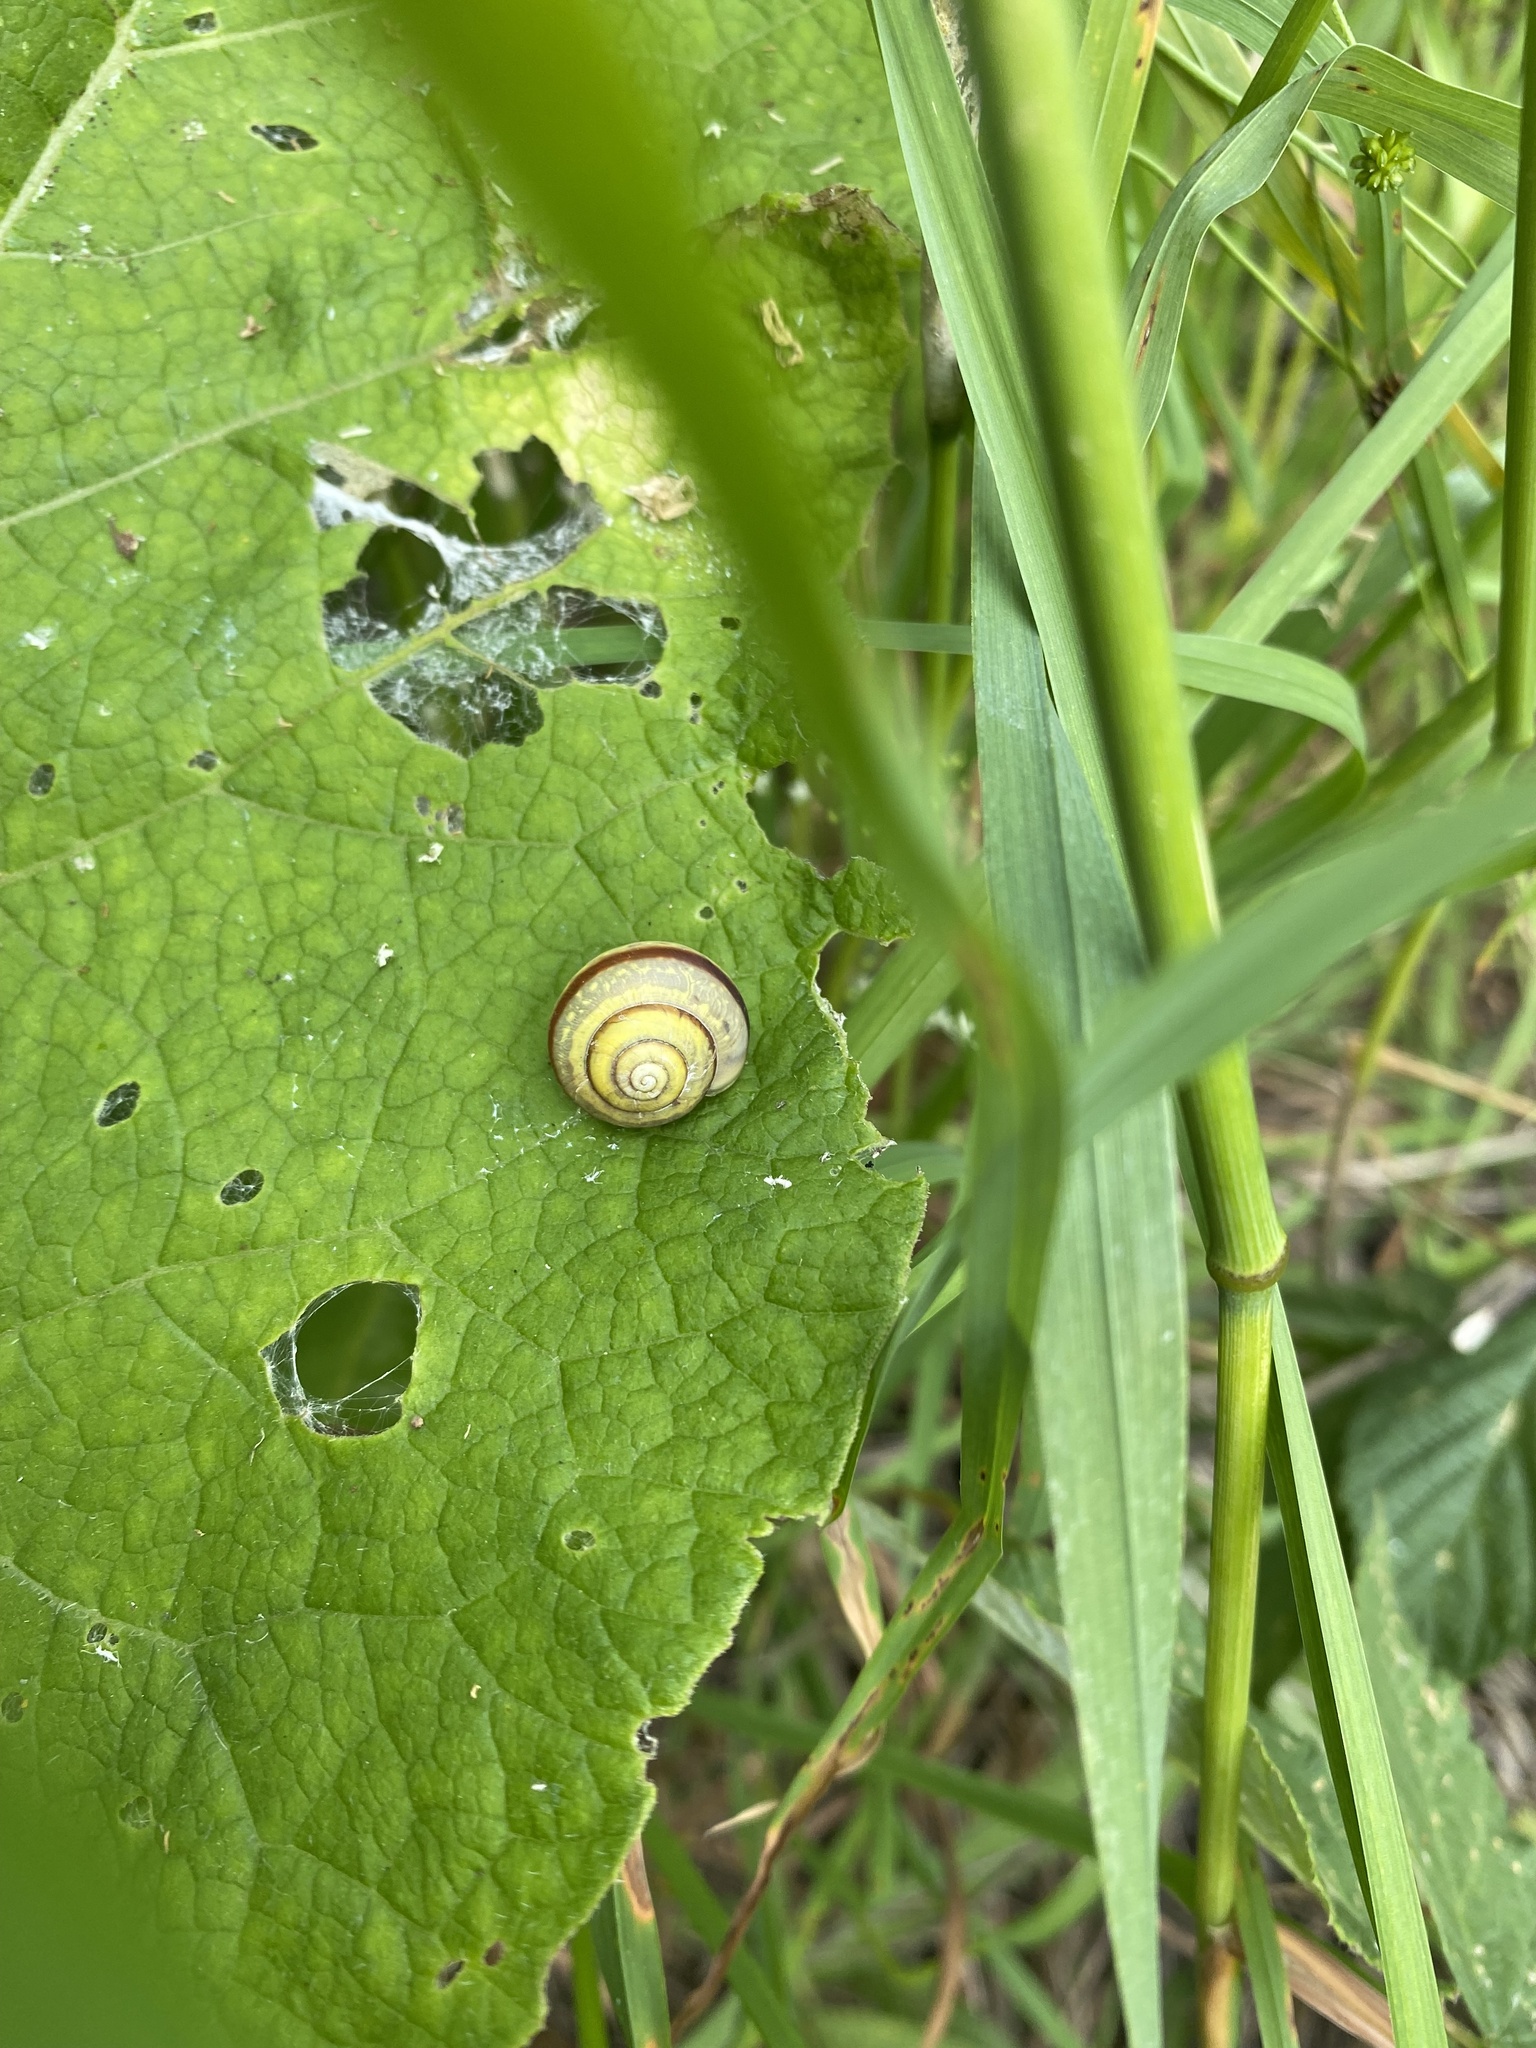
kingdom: Animalia
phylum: Mollusca
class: Gastropoda
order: Stylommatophora
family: Camaenidae
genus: Fruticicola
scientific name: Fruticicola fruticum
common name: Bush snail
